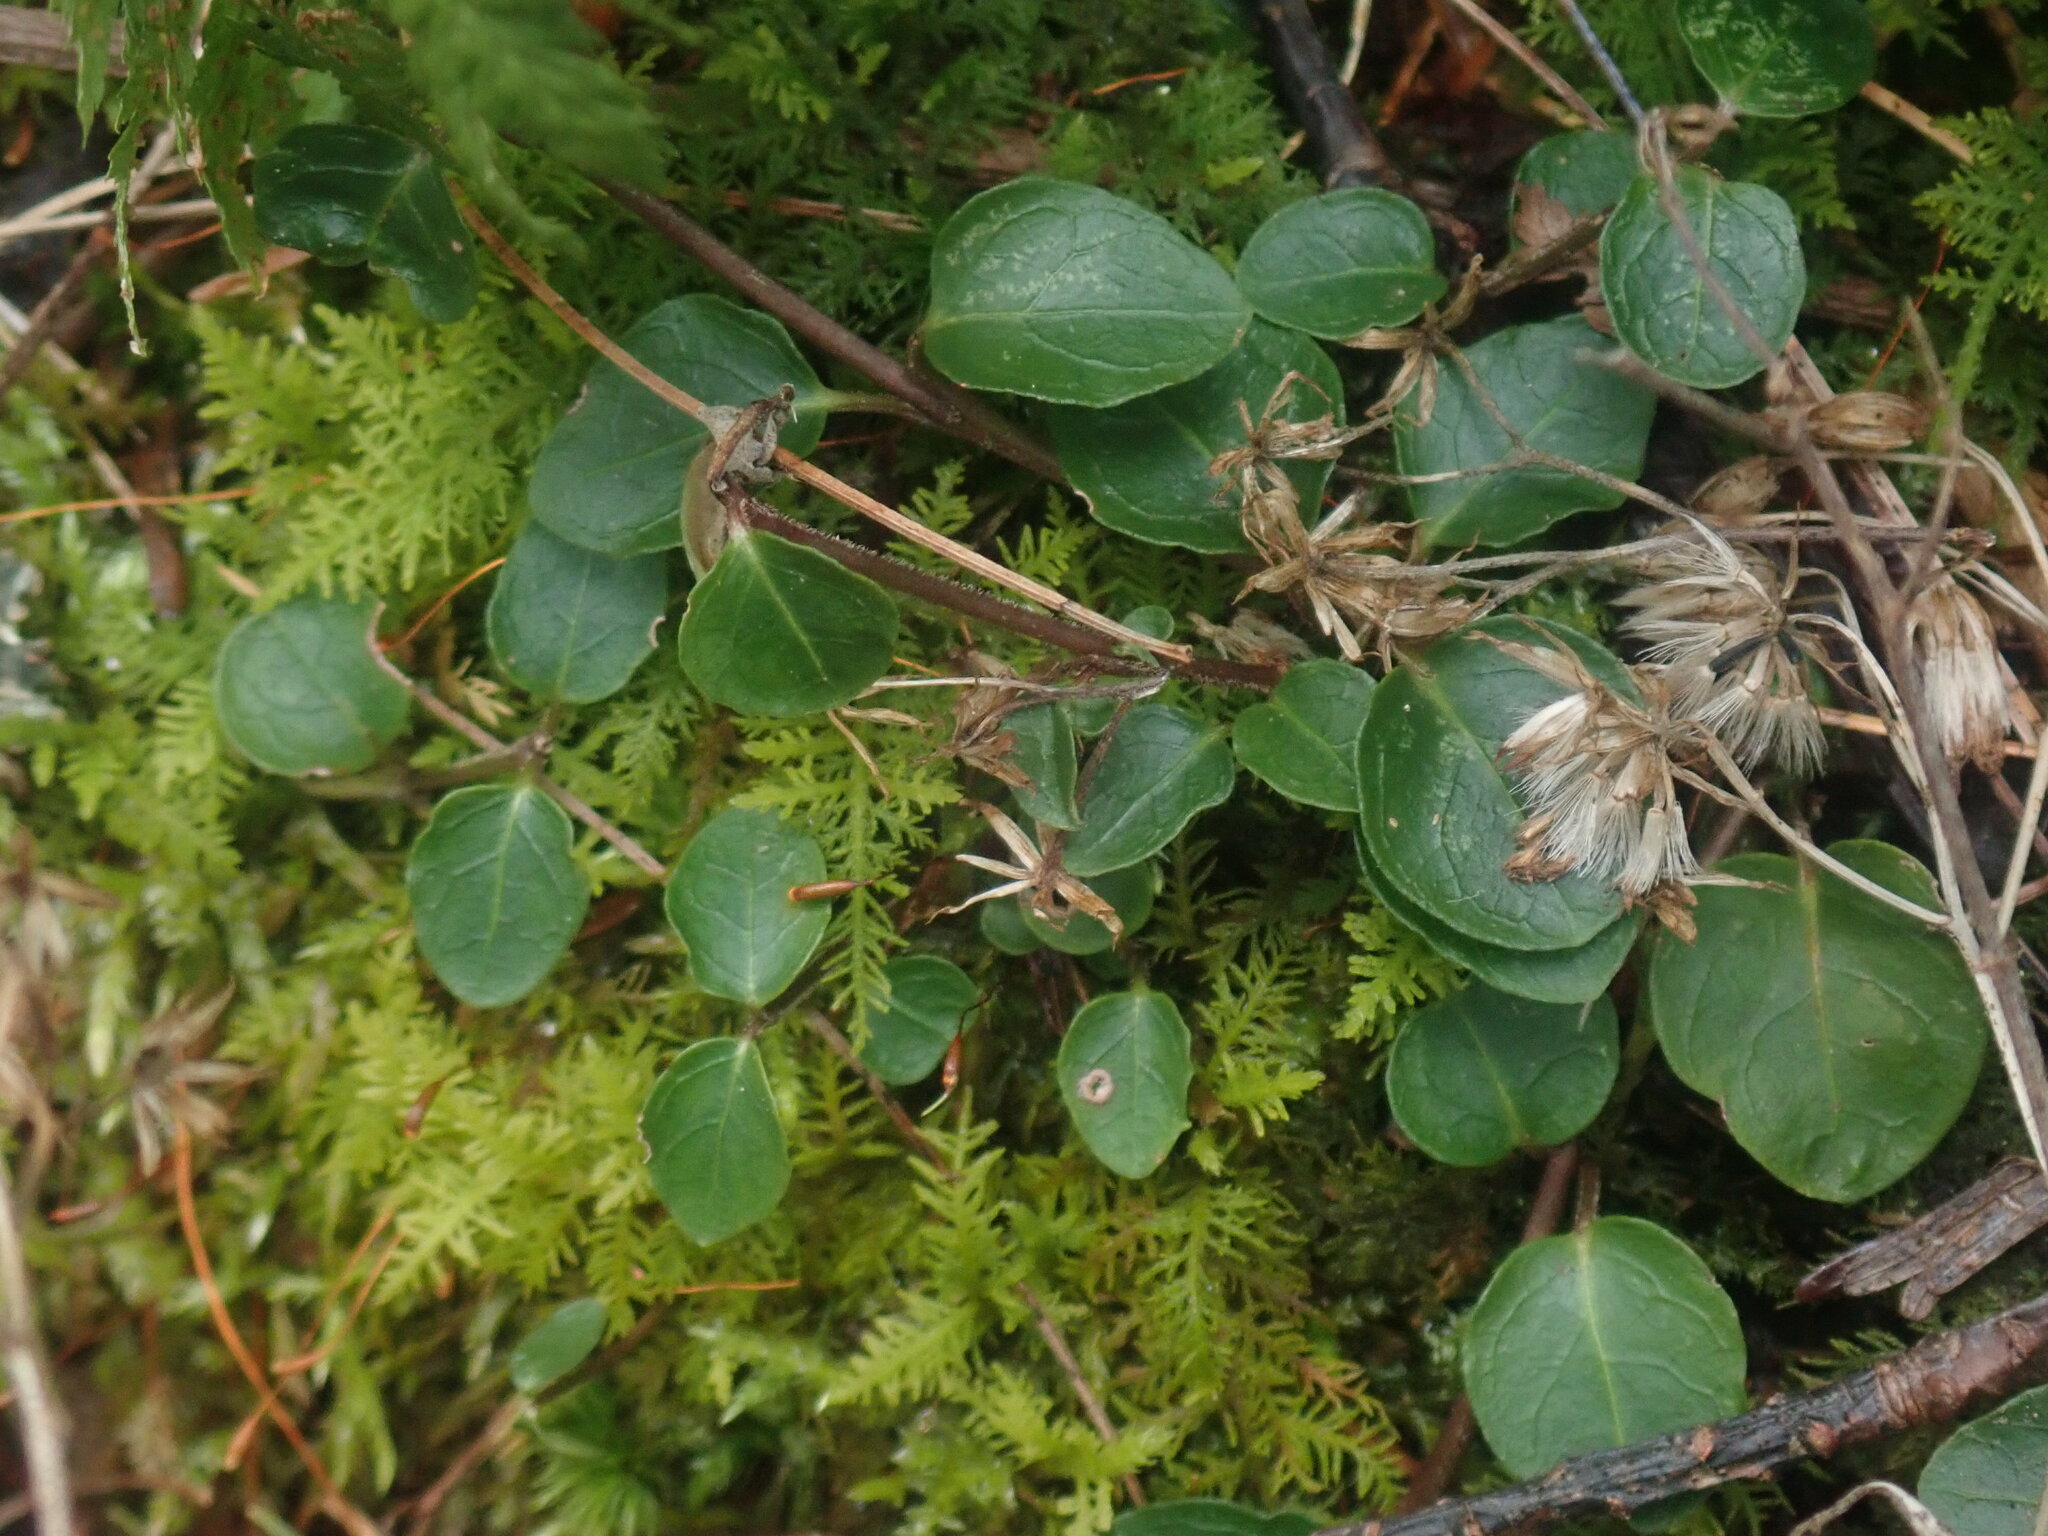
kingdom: Plantae
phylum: Tracheophyta
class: Magnoliopsida
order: Gentianales
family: Rubiaceae
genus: Mitchella
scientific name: Mitchella repens
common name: Partridge-berry
